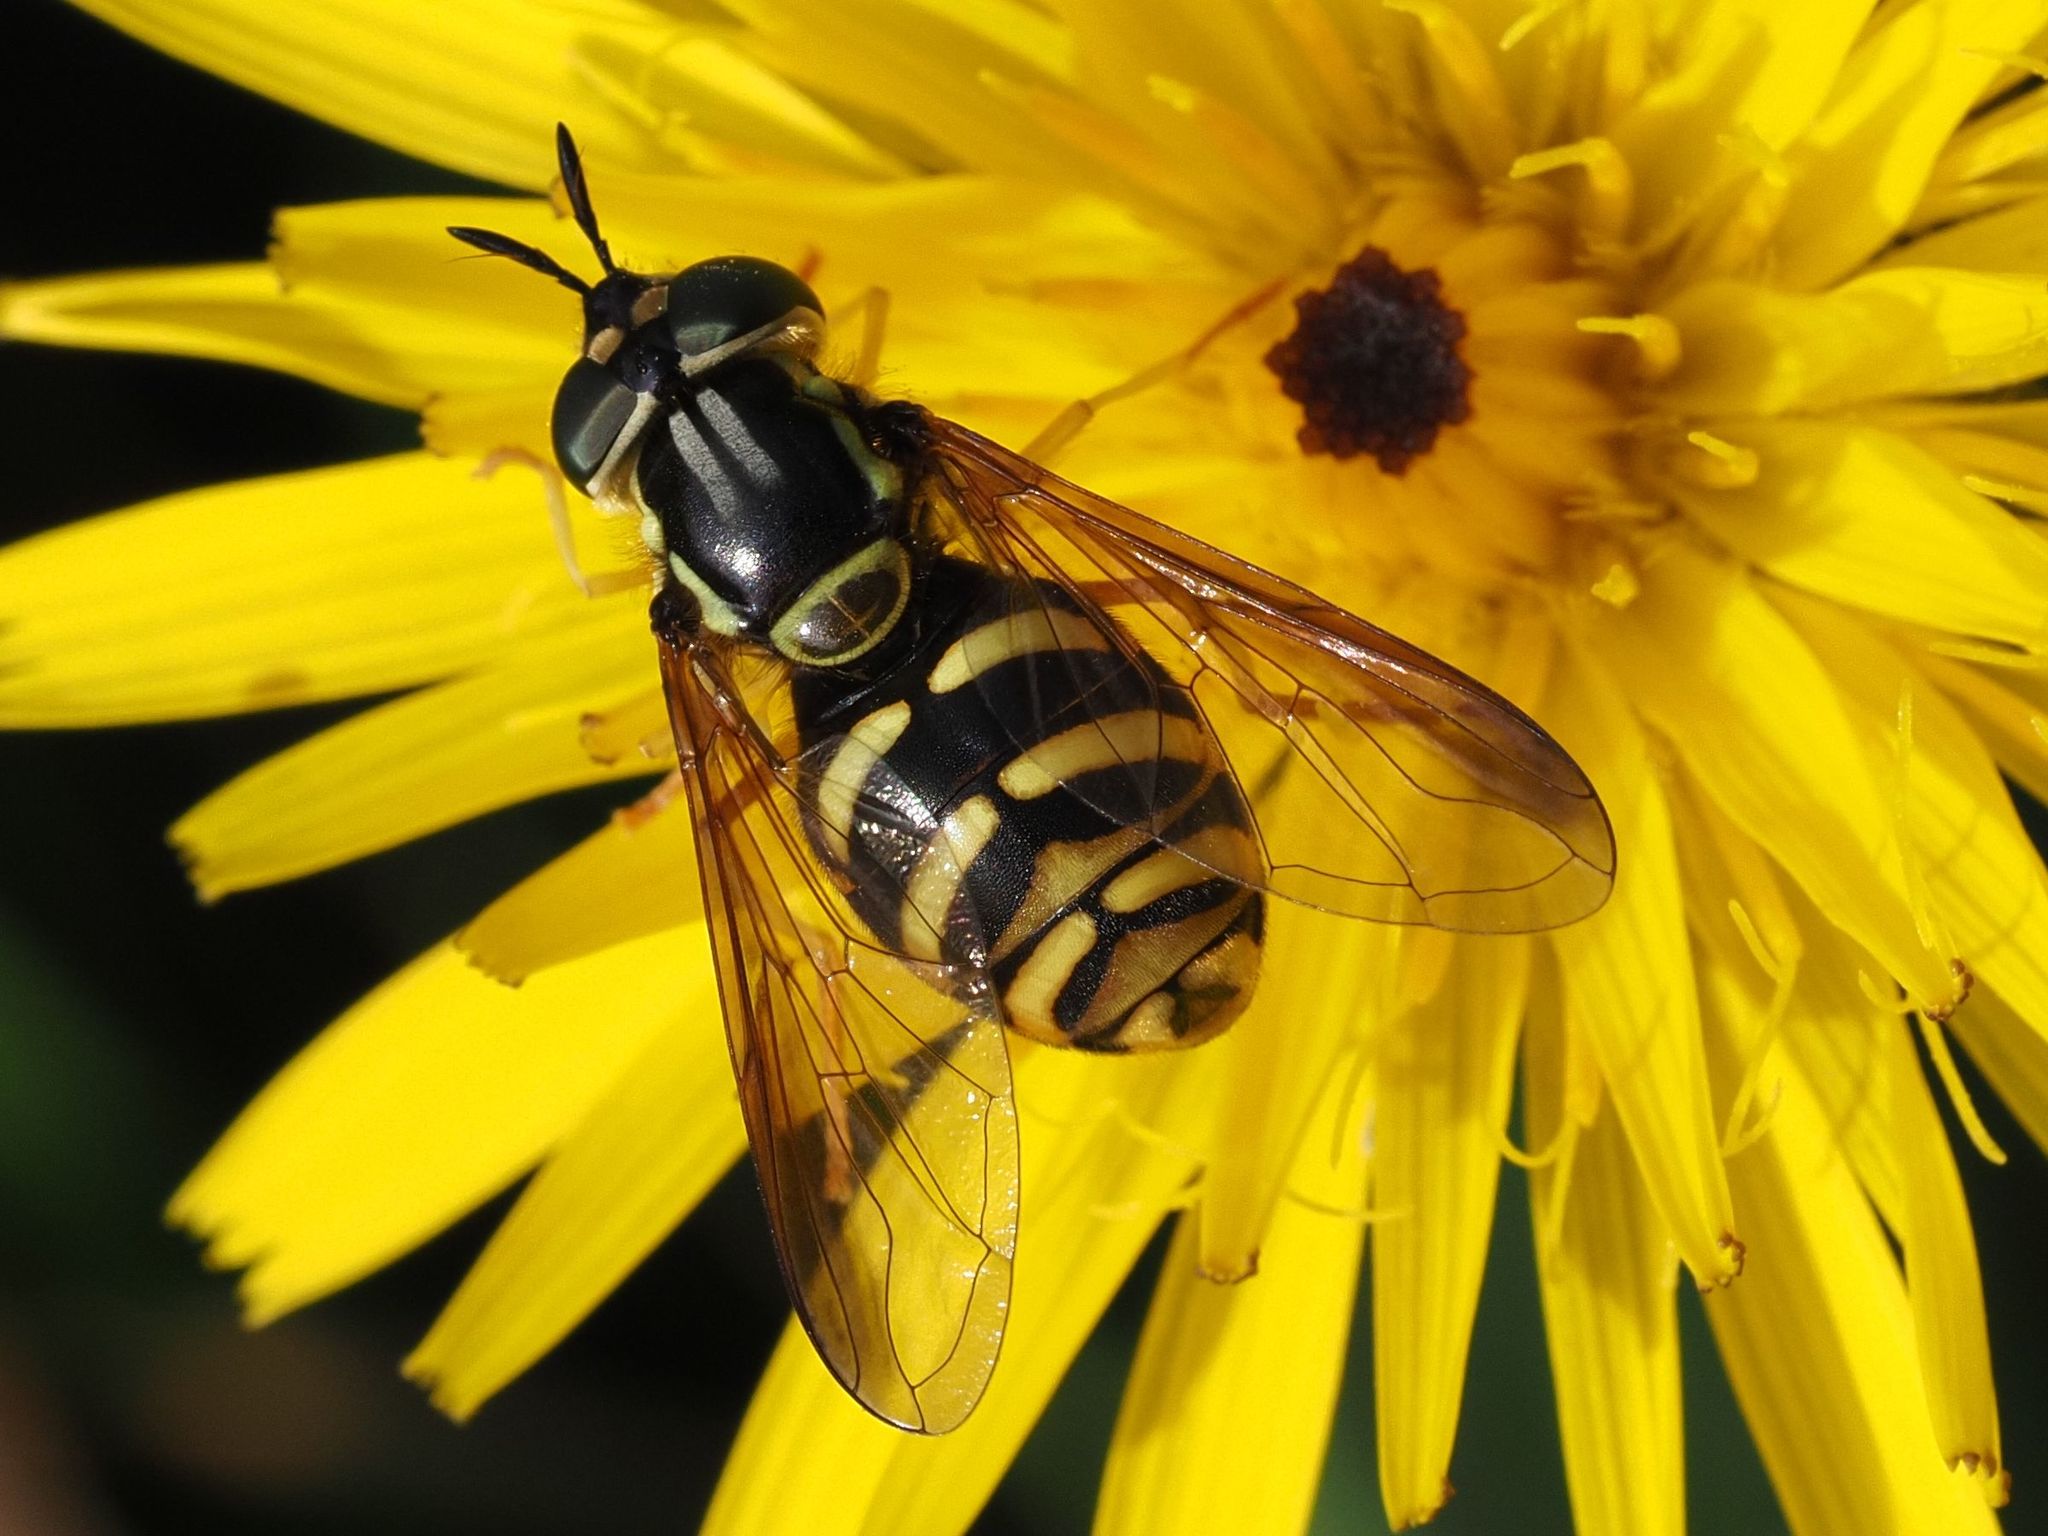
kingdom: Animalia
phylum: Arthropoda
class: Insecta
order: Diptera
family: Syrphidae
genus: Chrysotoxum
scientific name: Chrysotoxum intermedium
